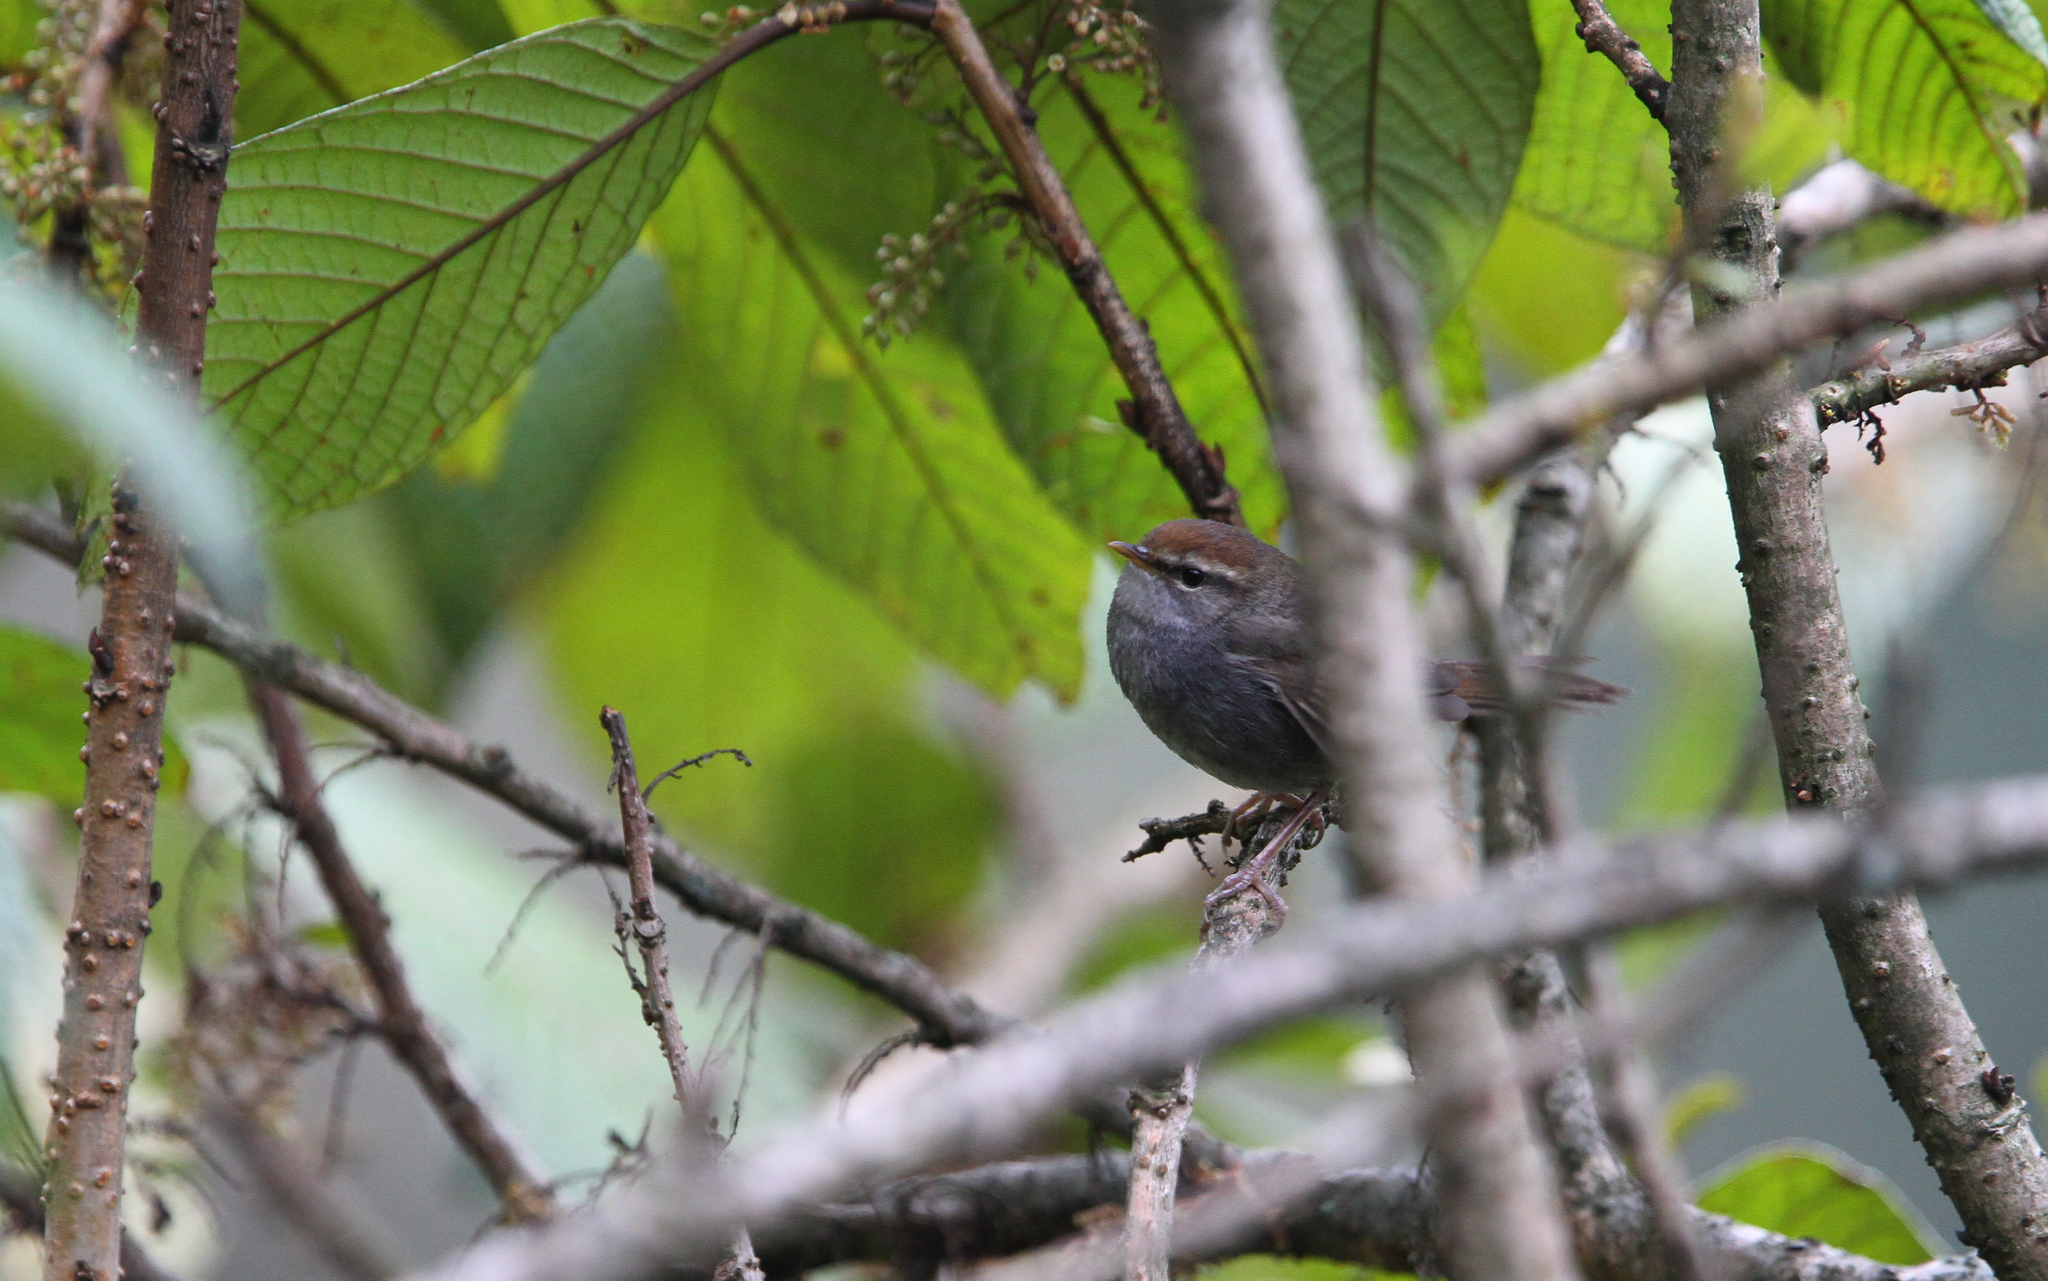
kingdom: Animalia
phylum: Chordata
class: Aves
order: Passeriformes
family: Cettiidae
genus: Cettia
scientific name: Cettia brunnifrons
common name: Grey-sided bush warbler
